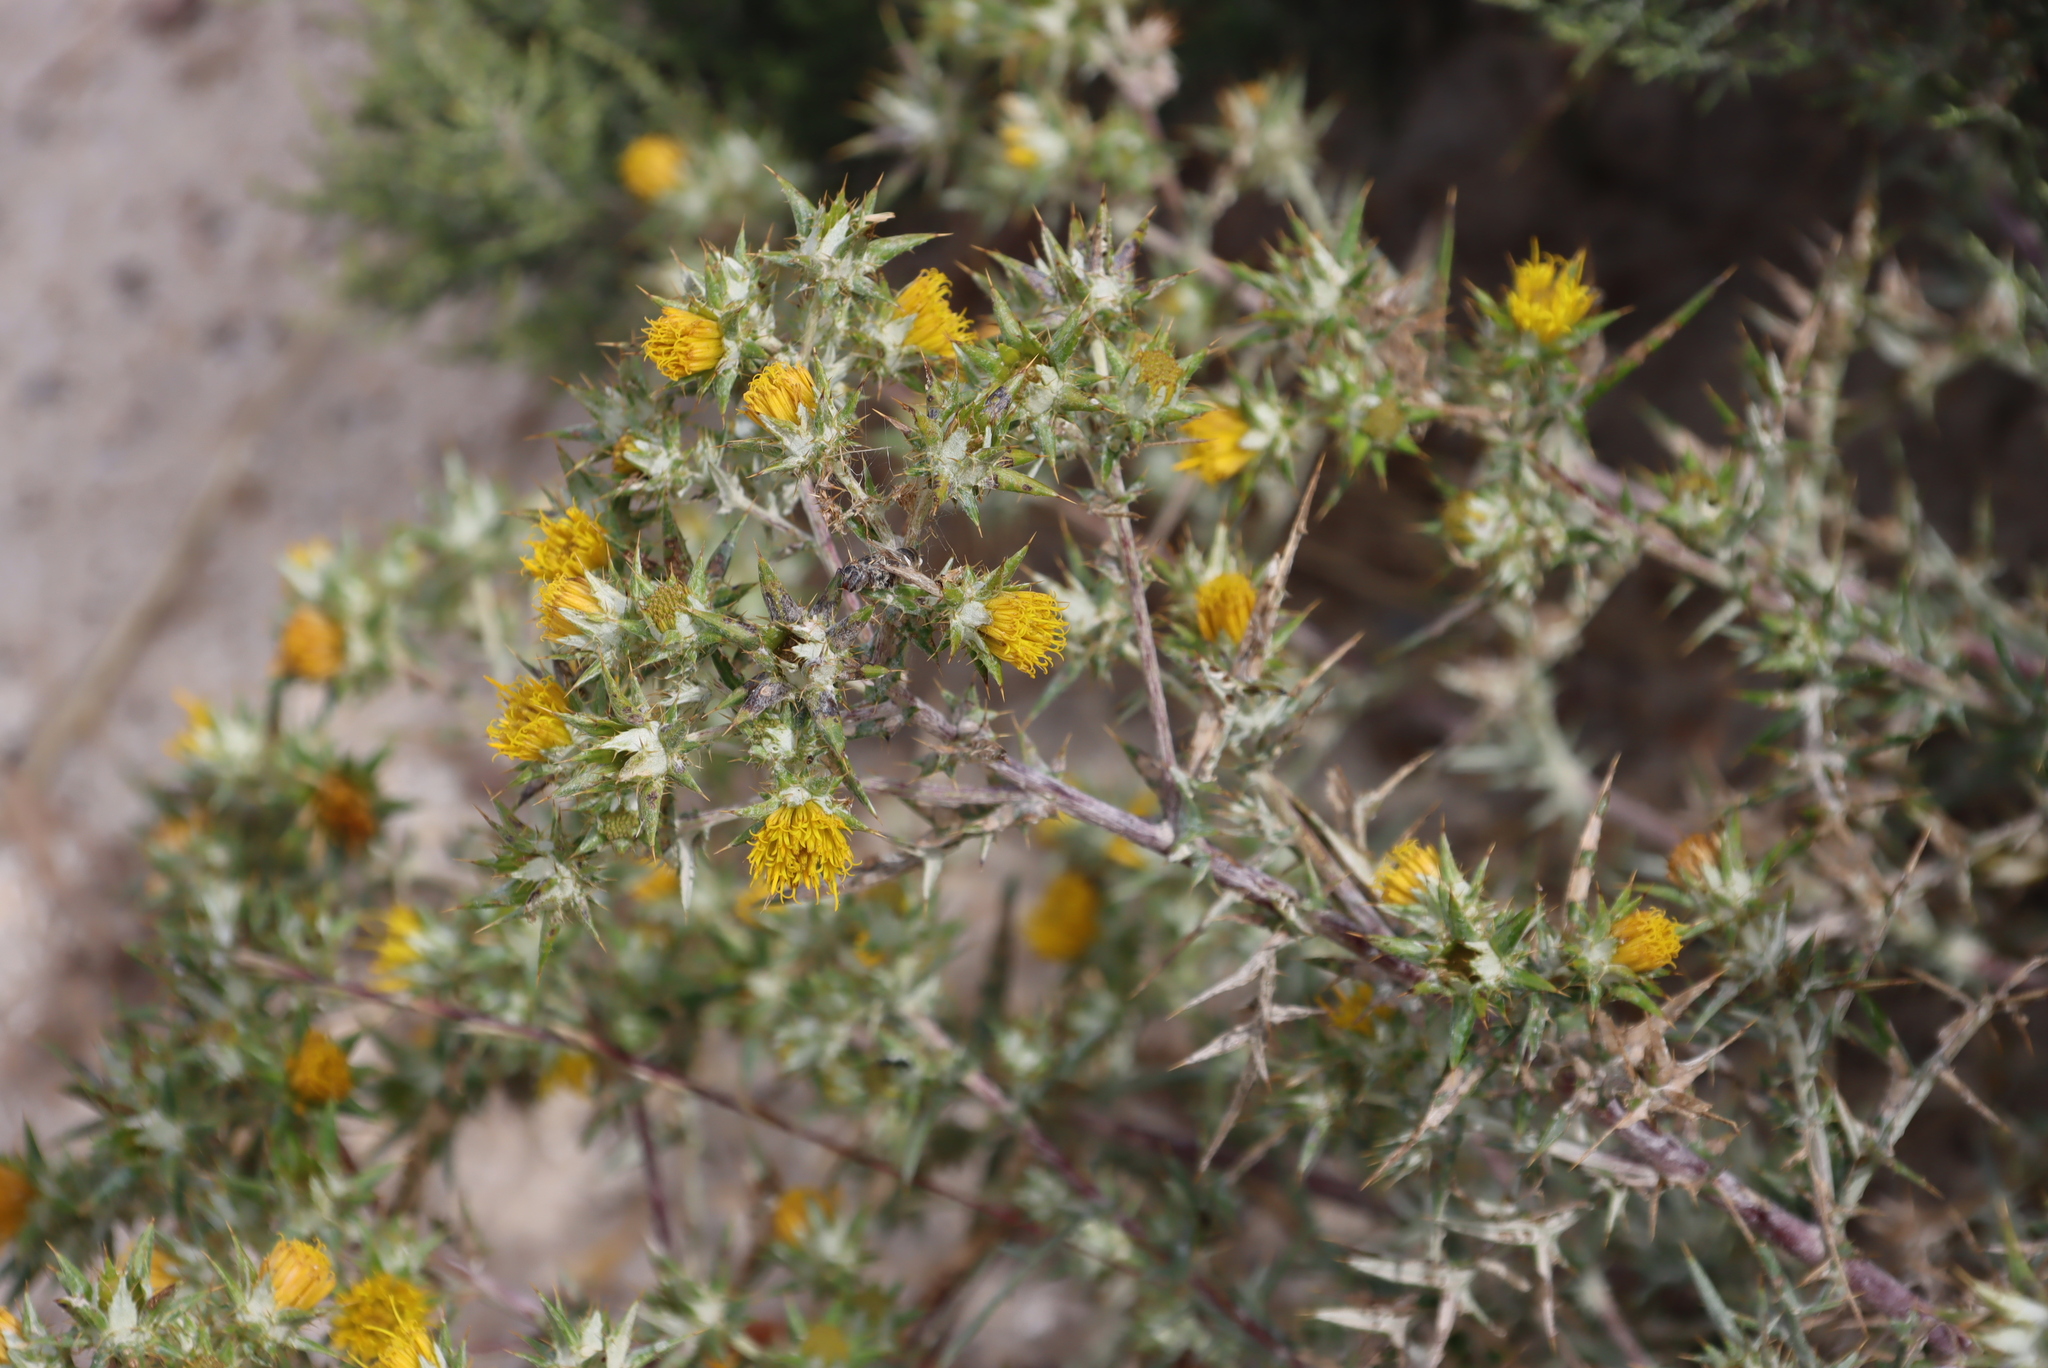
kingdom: Plantae
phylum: Tracheophyta
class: Magnoliopsida
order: Asterales
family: Asteraceae
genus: Berkheya
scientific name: Berkheya rigida
